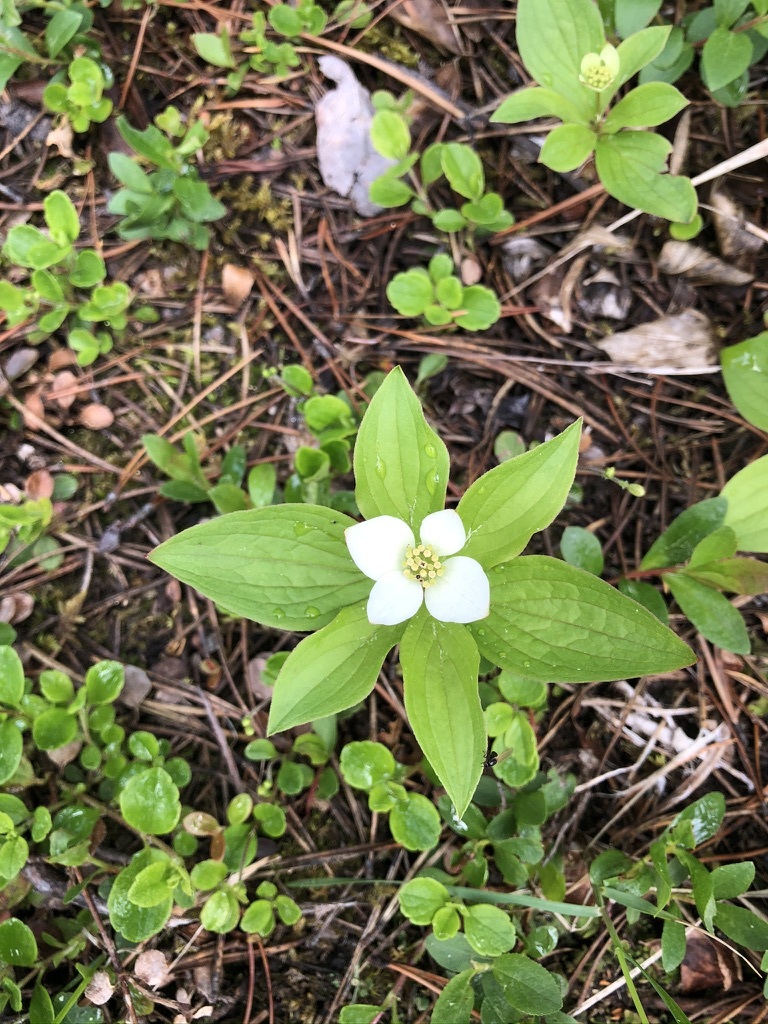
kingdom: Plantae
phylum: Tracheophyta
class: Magnoliopsida
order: Cornales
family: Cornaceae
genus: Cornus
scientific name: Cornus canadensis
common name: Creeping dogwood
